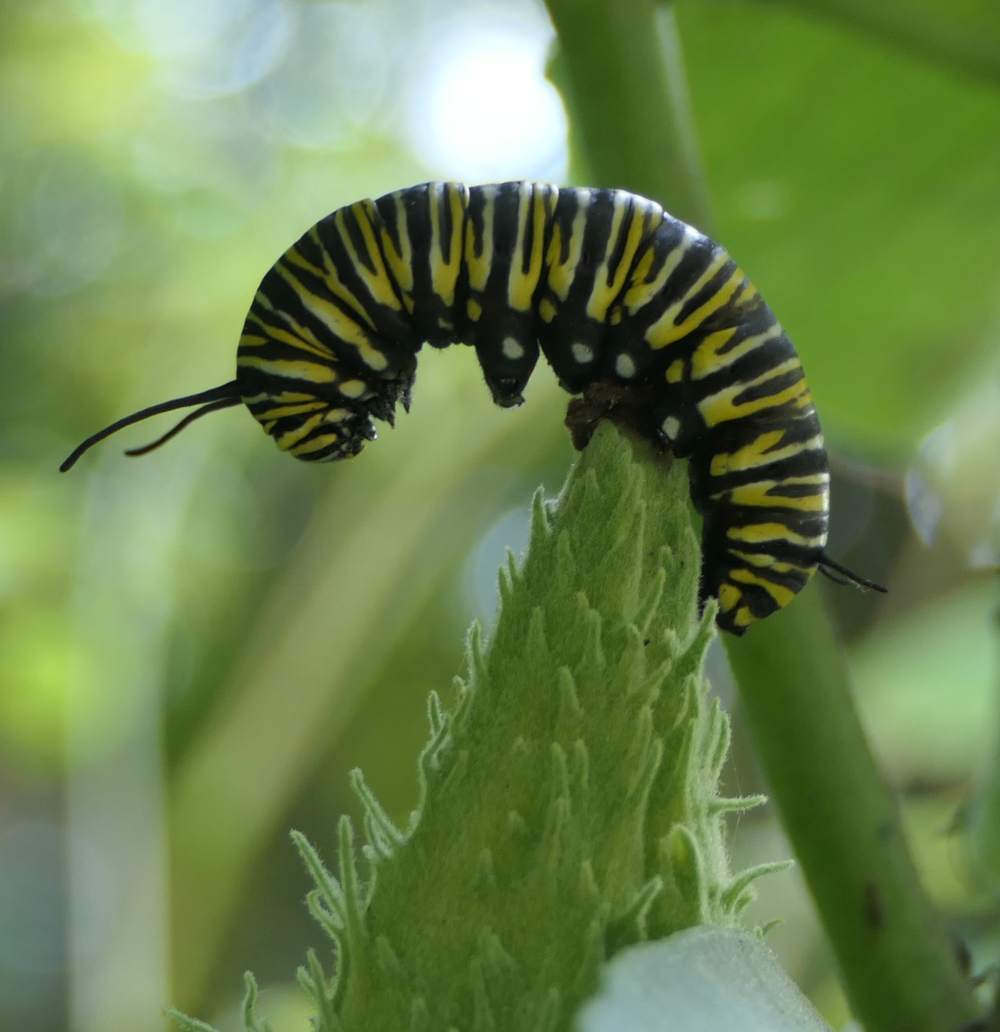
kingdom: Animalia
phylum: Arthropoda
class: Insecta
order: Lepidoptera
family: Nymphalidae
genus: Danaus
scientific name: Danaus plexippus
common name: Monarch
